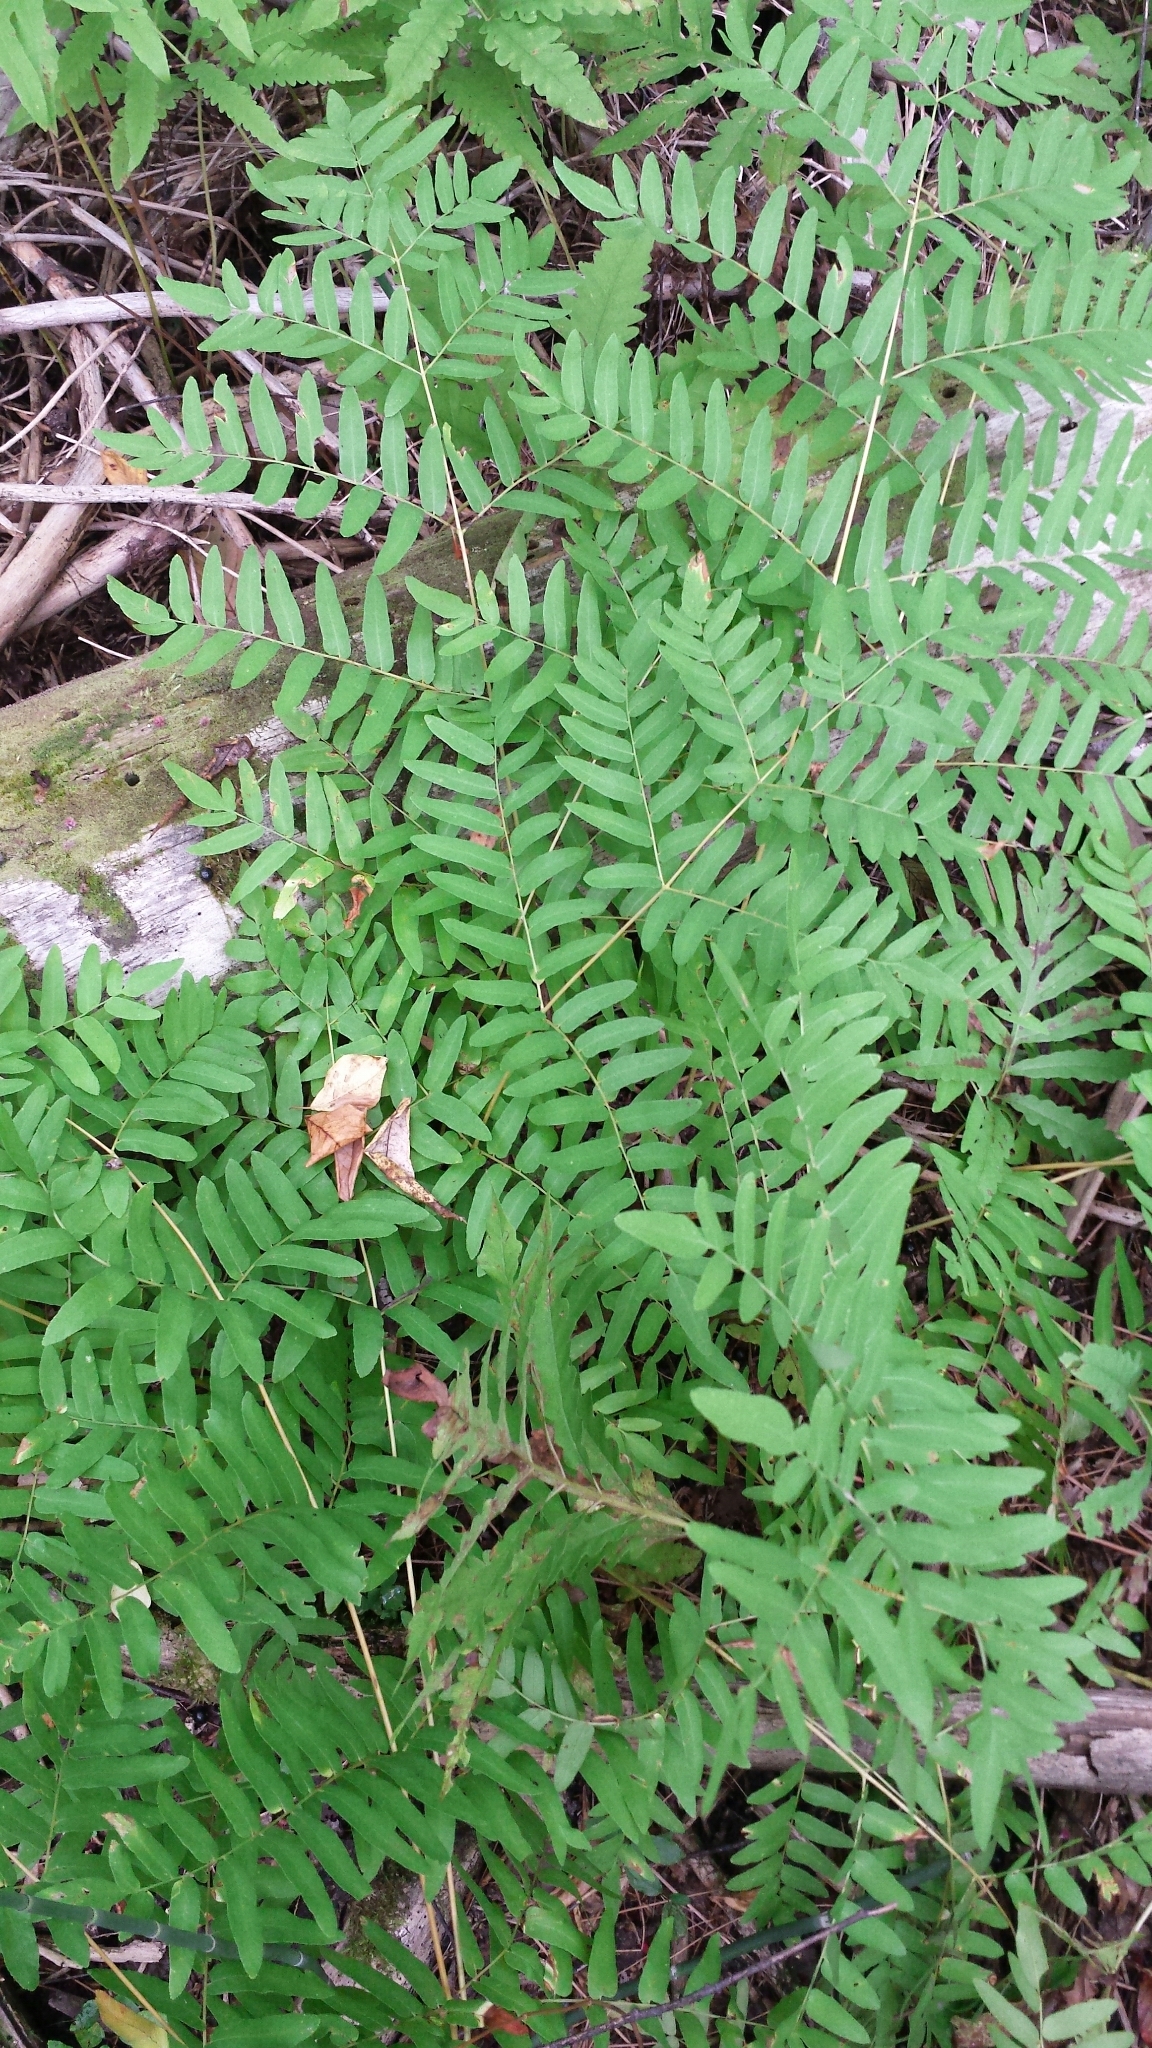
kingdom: Plantae
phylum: Tracheophyta
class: Polypodiopsida
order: Osmundales
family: Osmundaceae
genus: Osmunda
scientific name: Osmunda spectabilis
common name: American royal fern
